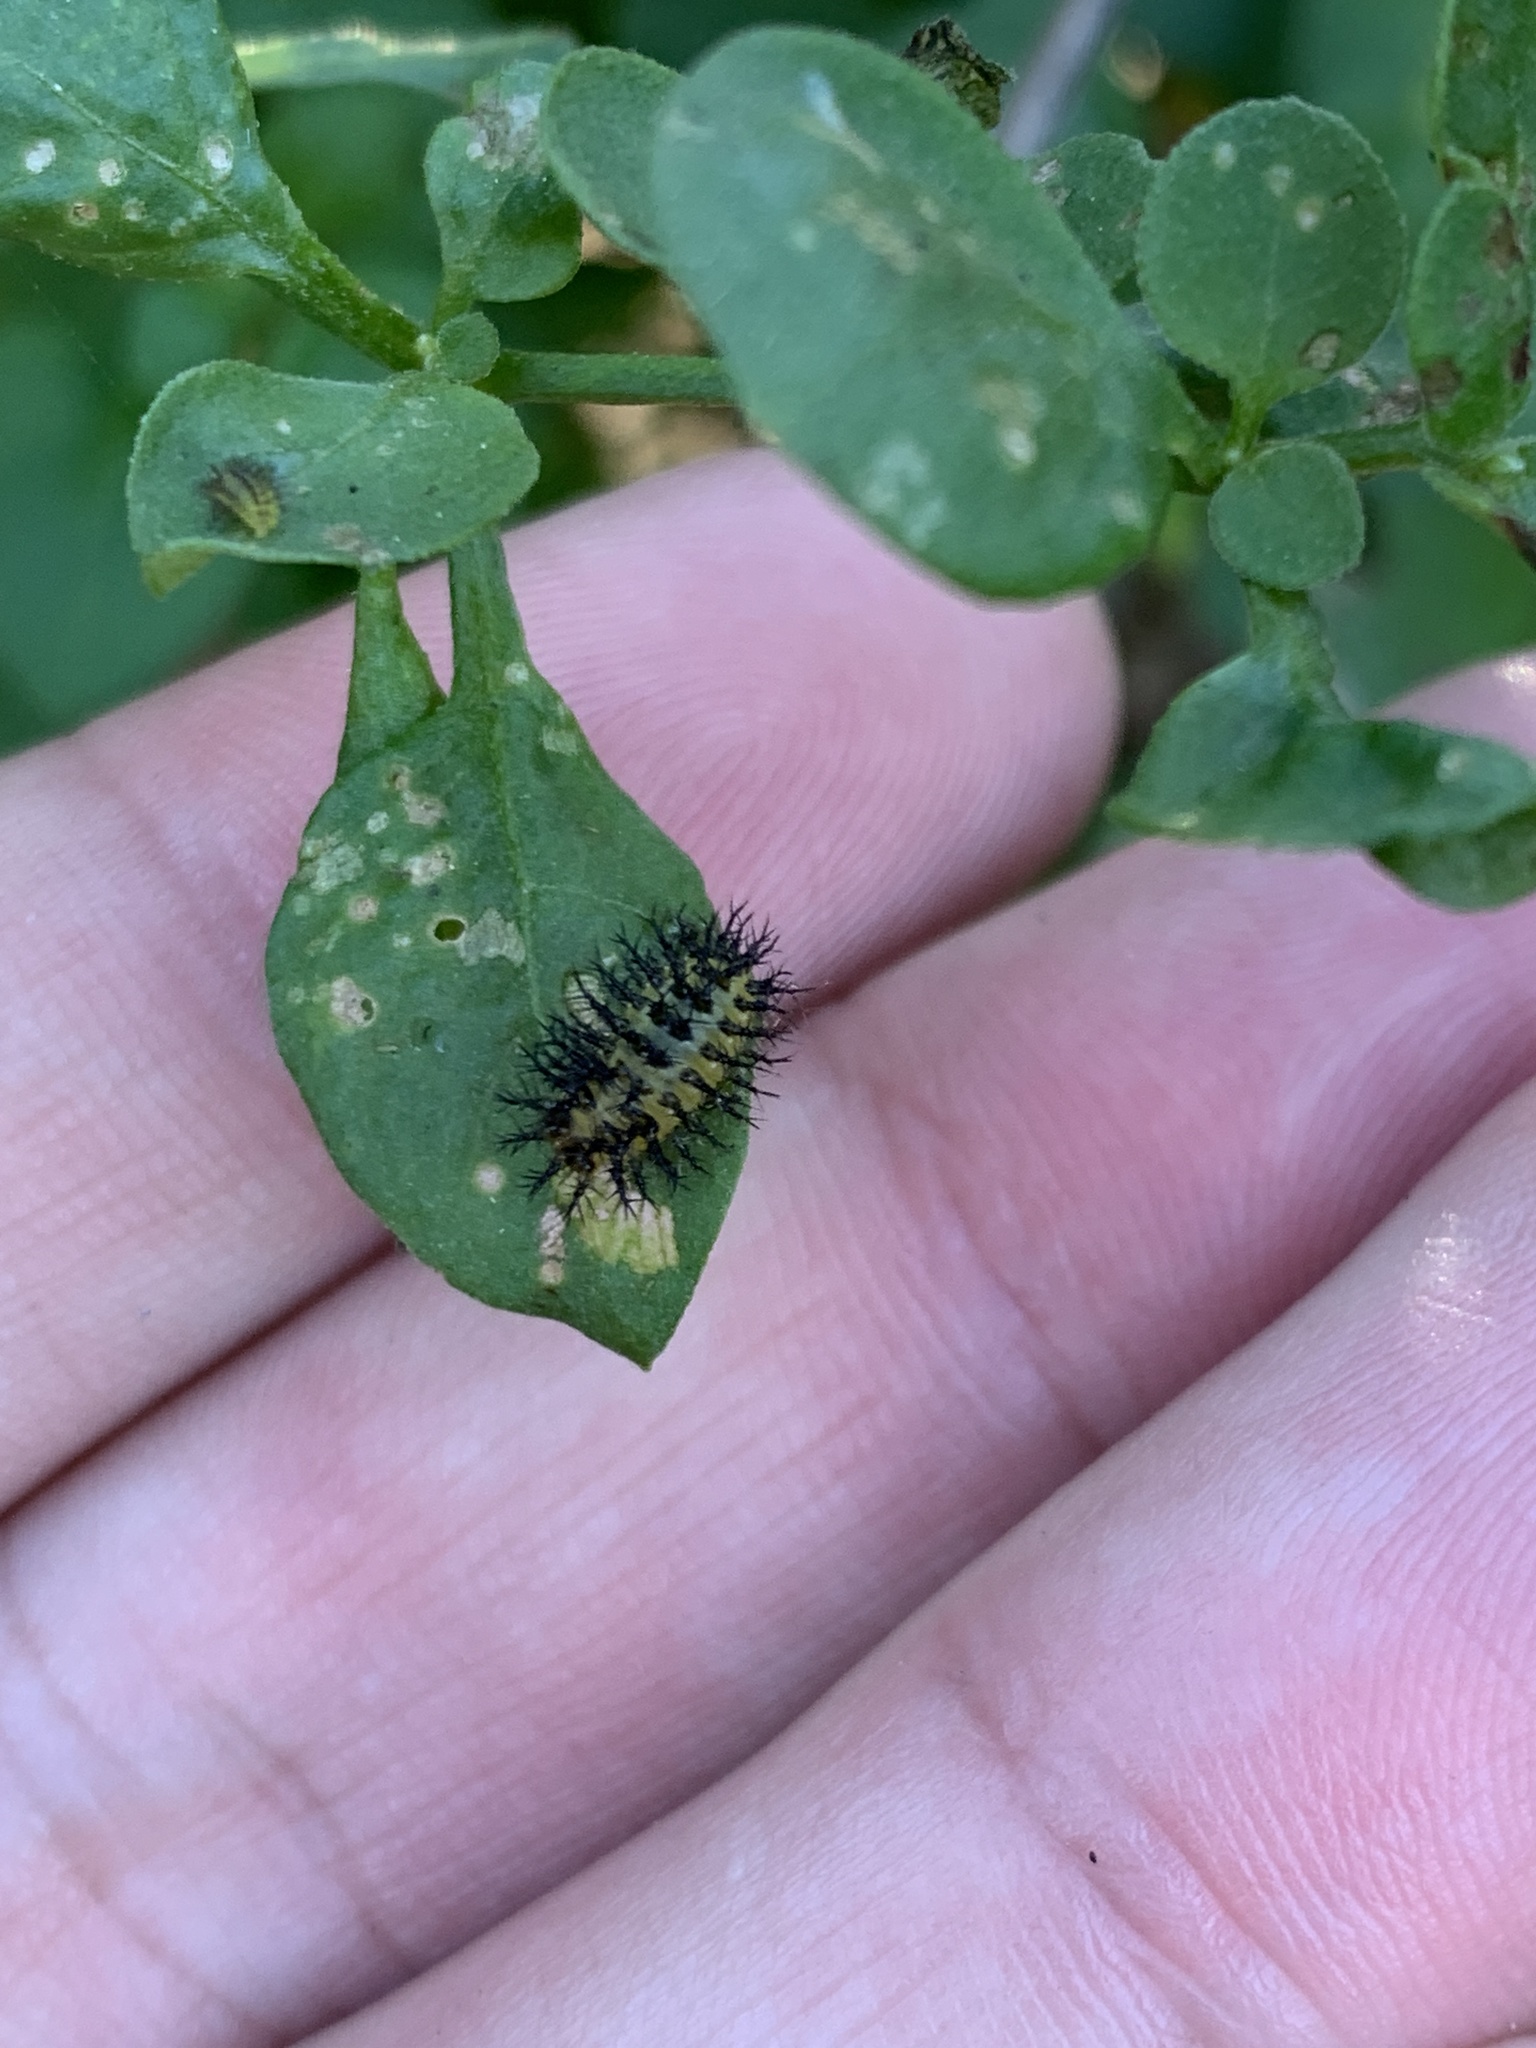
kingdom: Animalia
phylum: Arthropoda
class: Insecta
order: Coleoptera
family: Coccinellidae
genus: Henosepilachna
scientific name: Henosepilachna vigintioctopunctata
